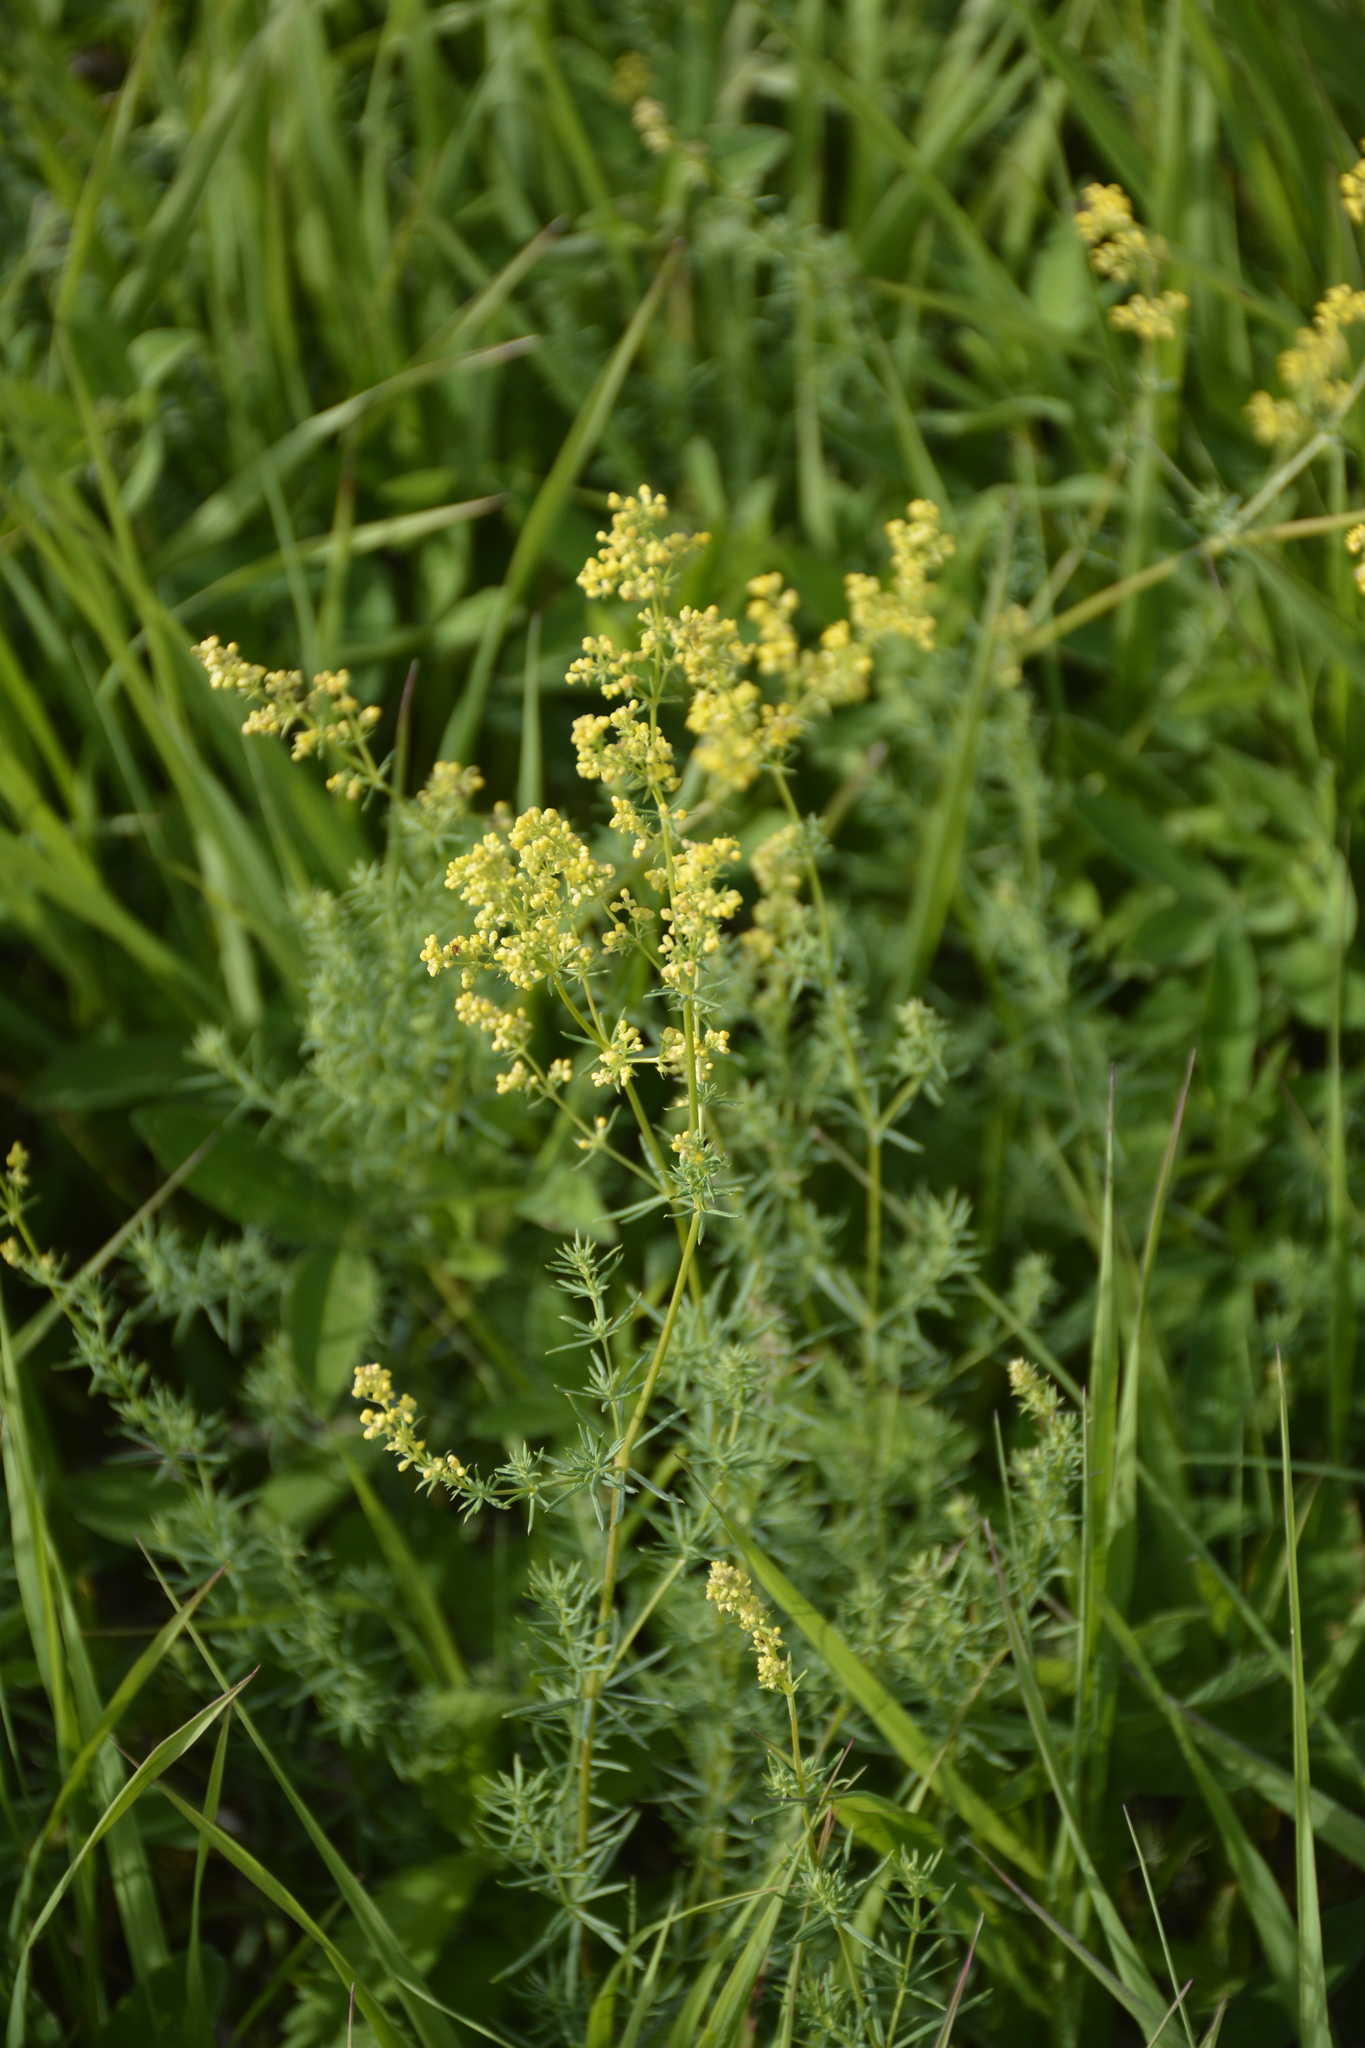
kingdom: Plantae
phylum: Tracheophyta
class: Magnoliopsida
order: Gentianales
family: Rubiaceae
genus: Galium
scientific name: Galium verum
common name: Lady's bedstraw
